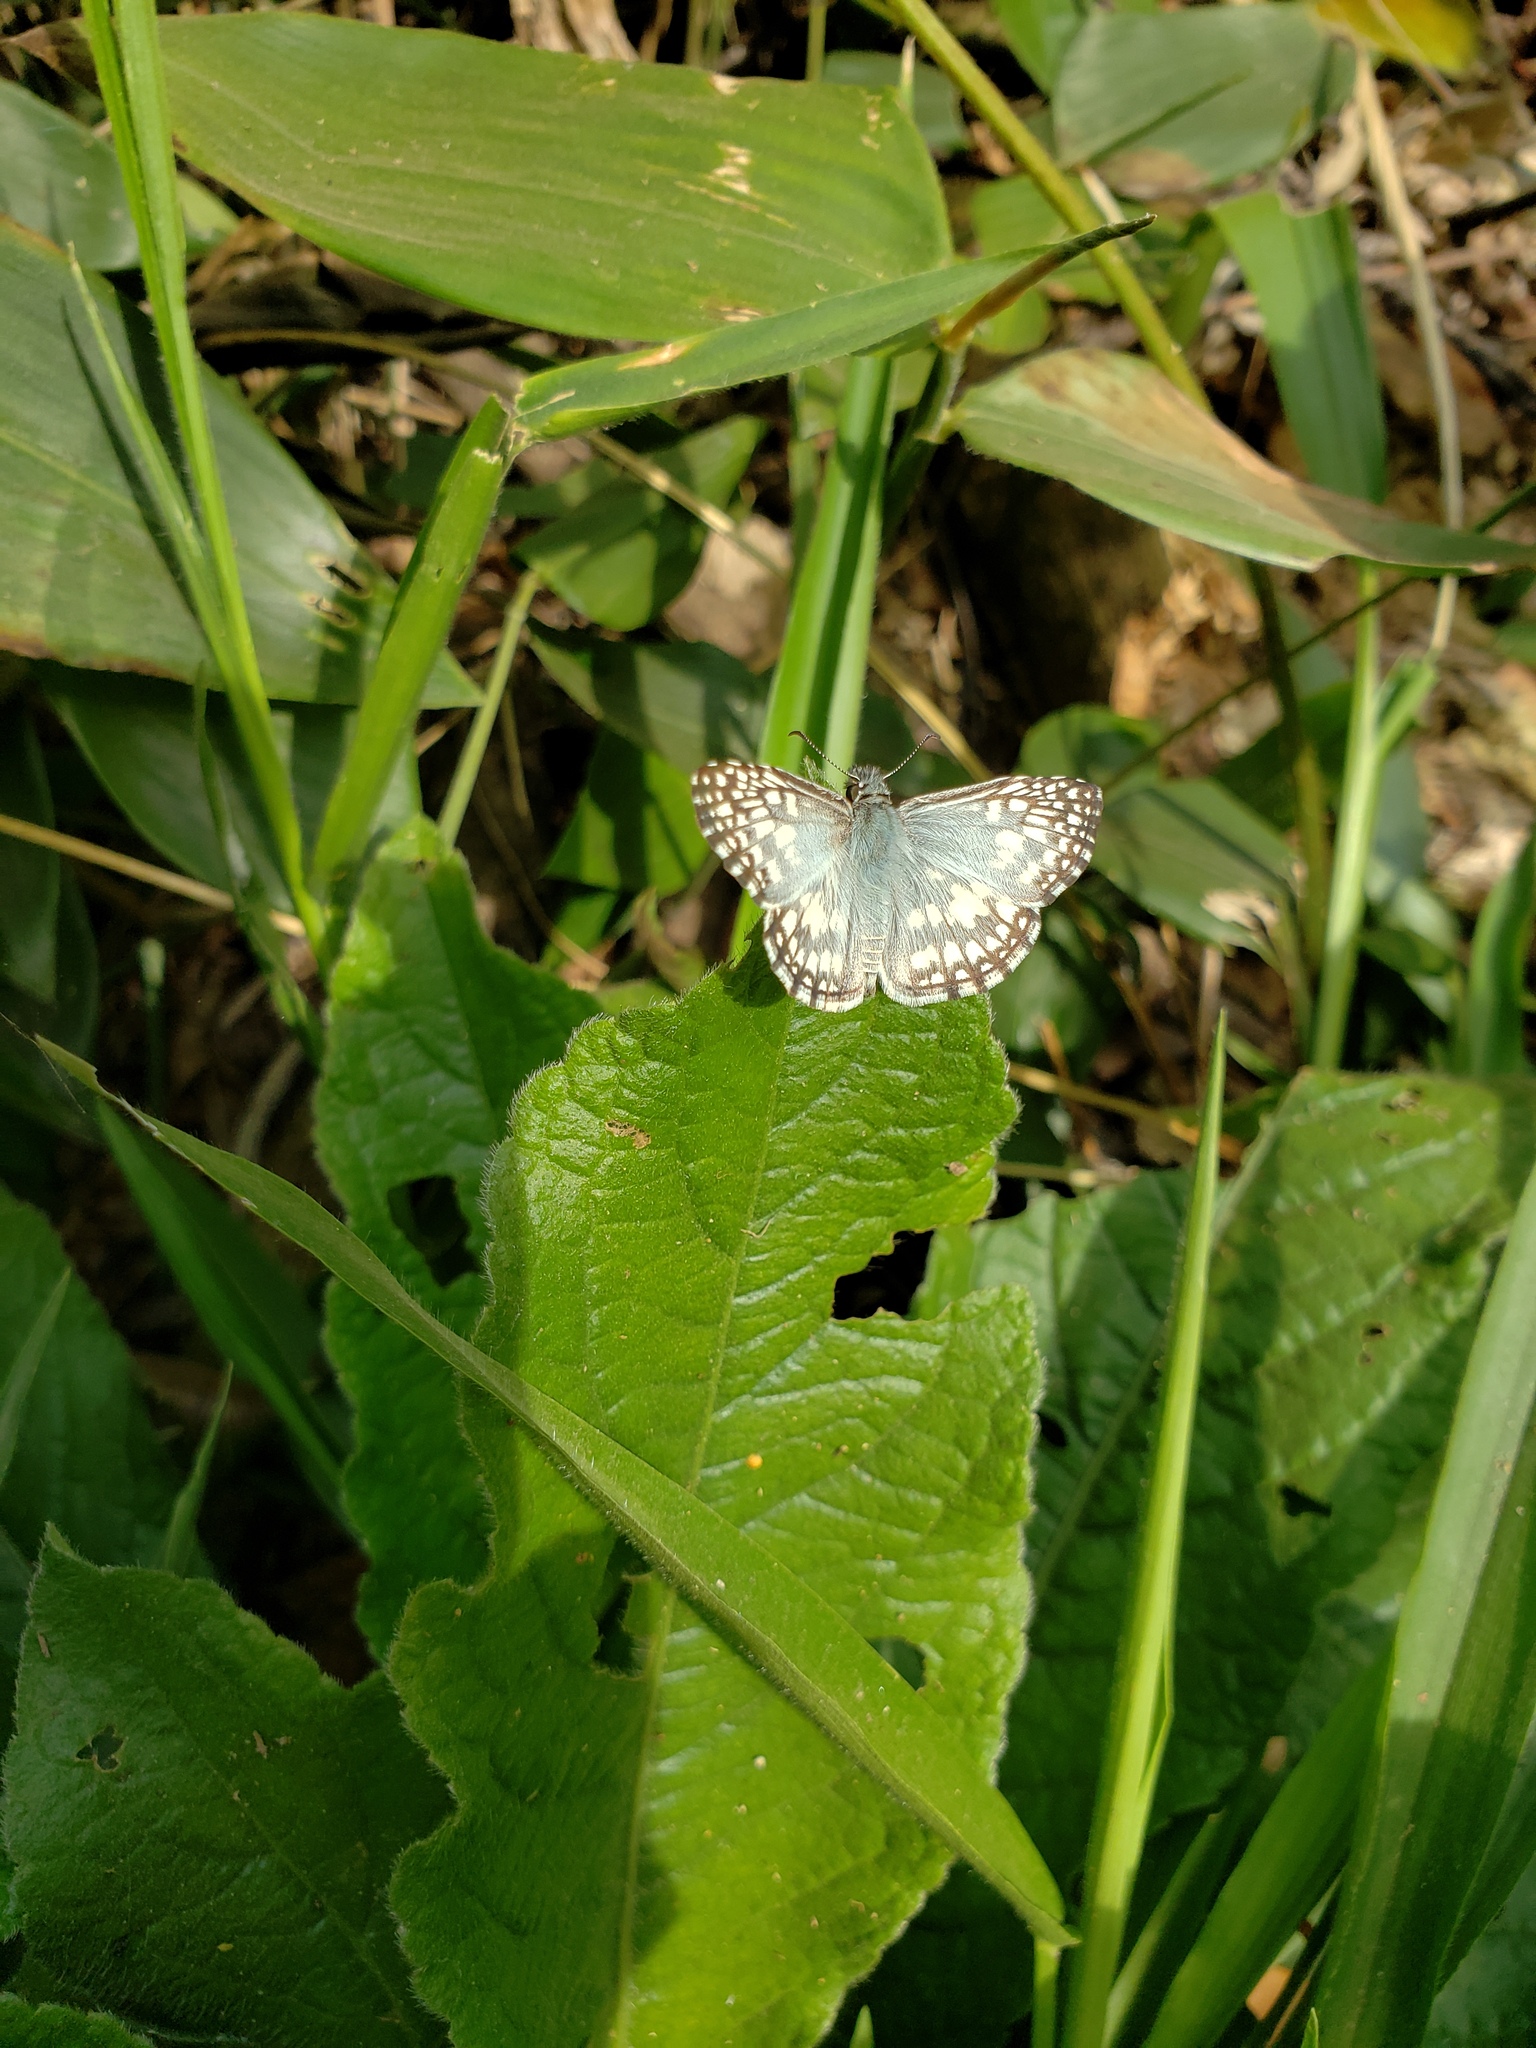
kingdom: Animalia
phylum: Arthropoda
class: Insecta
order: Lepidoptera
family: Hesperiidae
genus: Pyrgus
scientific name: Pyrgus oileus
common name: Tropical checkered-skipper
